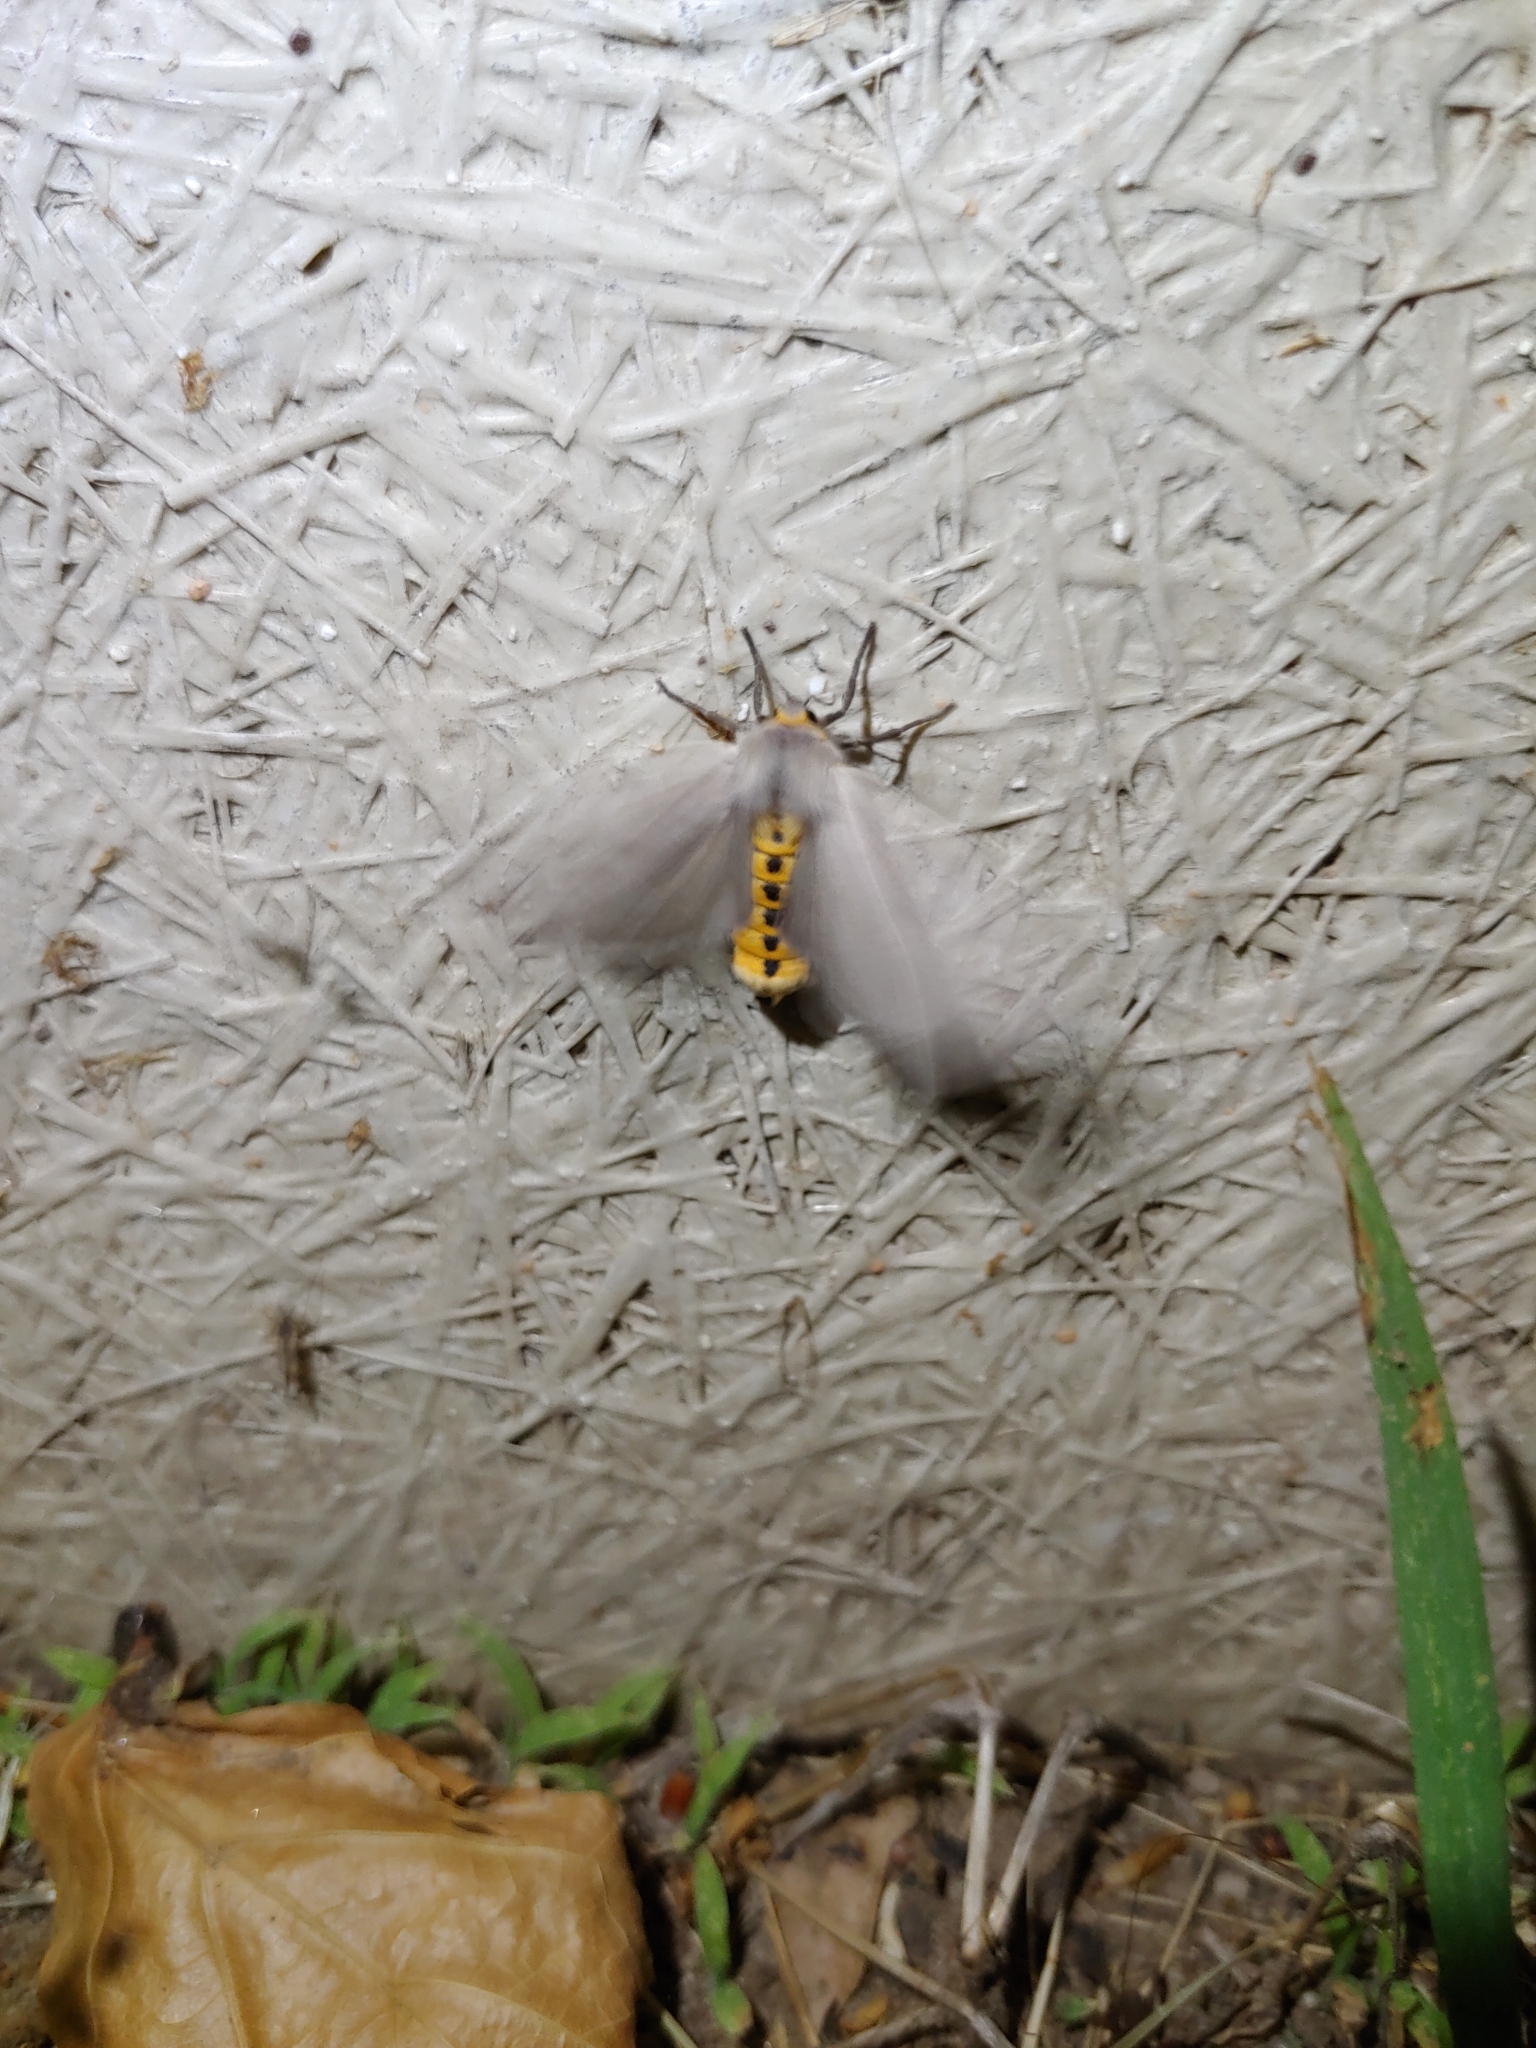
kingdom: Animalia
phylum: Arthropoda
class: Insecta
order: Lepidoptera
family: Erebidae
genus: Euchaetes
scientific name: Euchaetes egle
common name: Milkweed tussock moth
